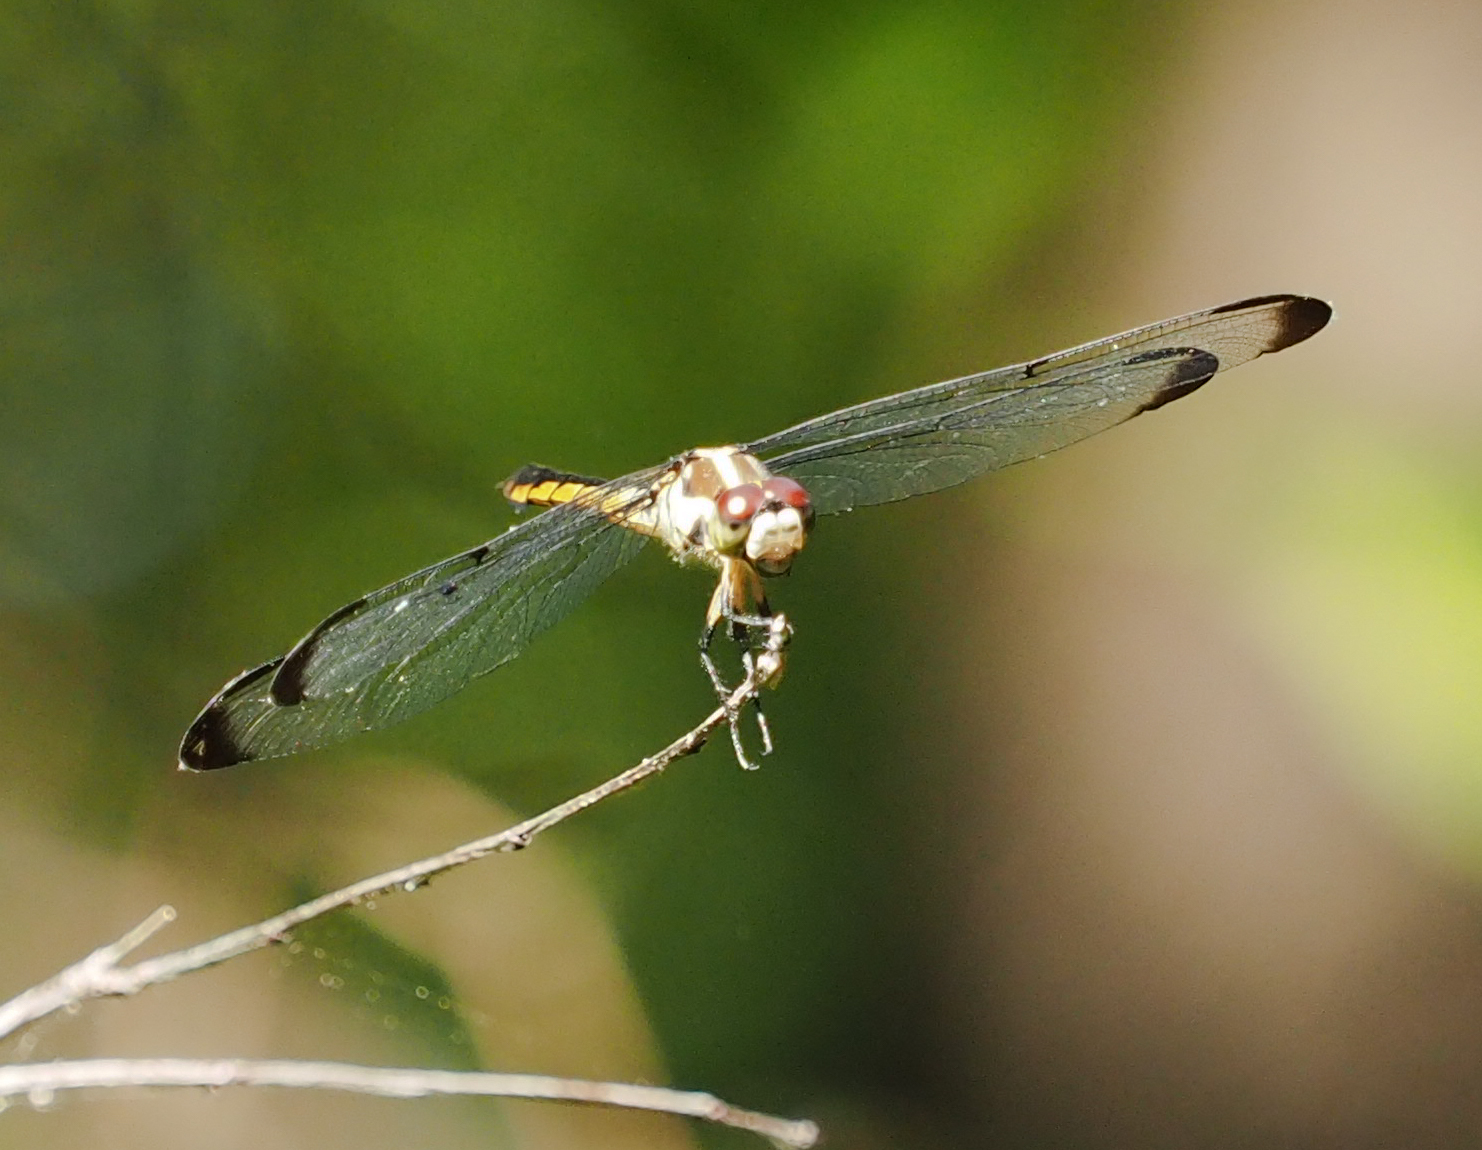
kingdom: Animalia
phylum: Arthropoda
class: Insecta
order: Odonata
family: Libellulidae
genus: Libellula
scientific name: Libellula vibrans
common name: Great blue skimmer
